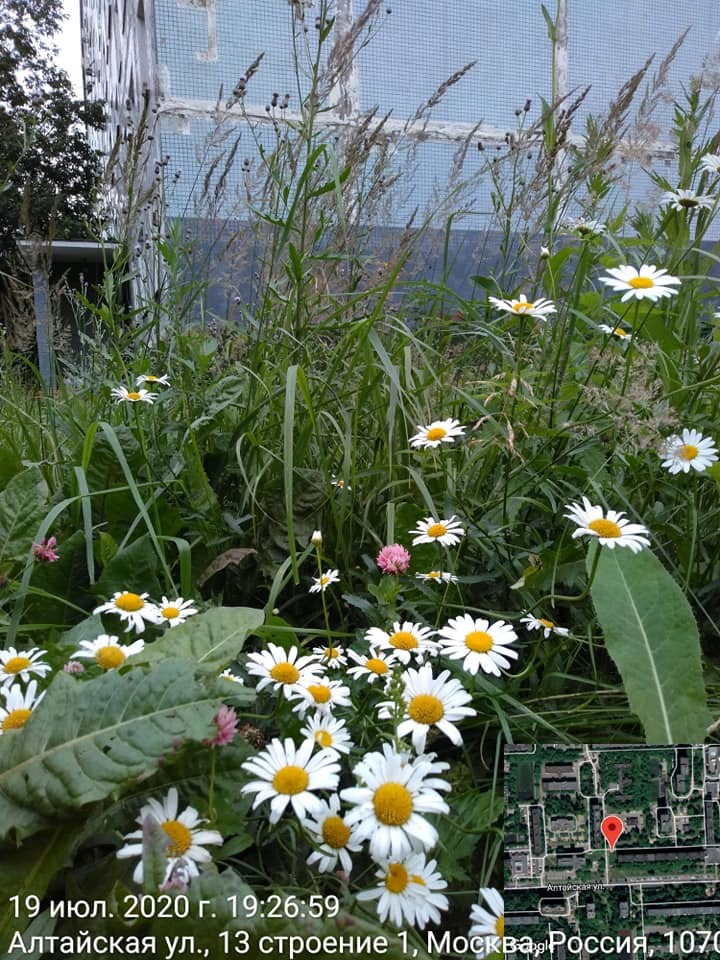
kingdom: Plantae
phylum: Tracheophyta
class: Magnoliopsida
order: Asterales
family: Asteraceae
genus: Leucanthemum
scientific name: Leucanthemum vulgare
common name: Oxeye daisy
